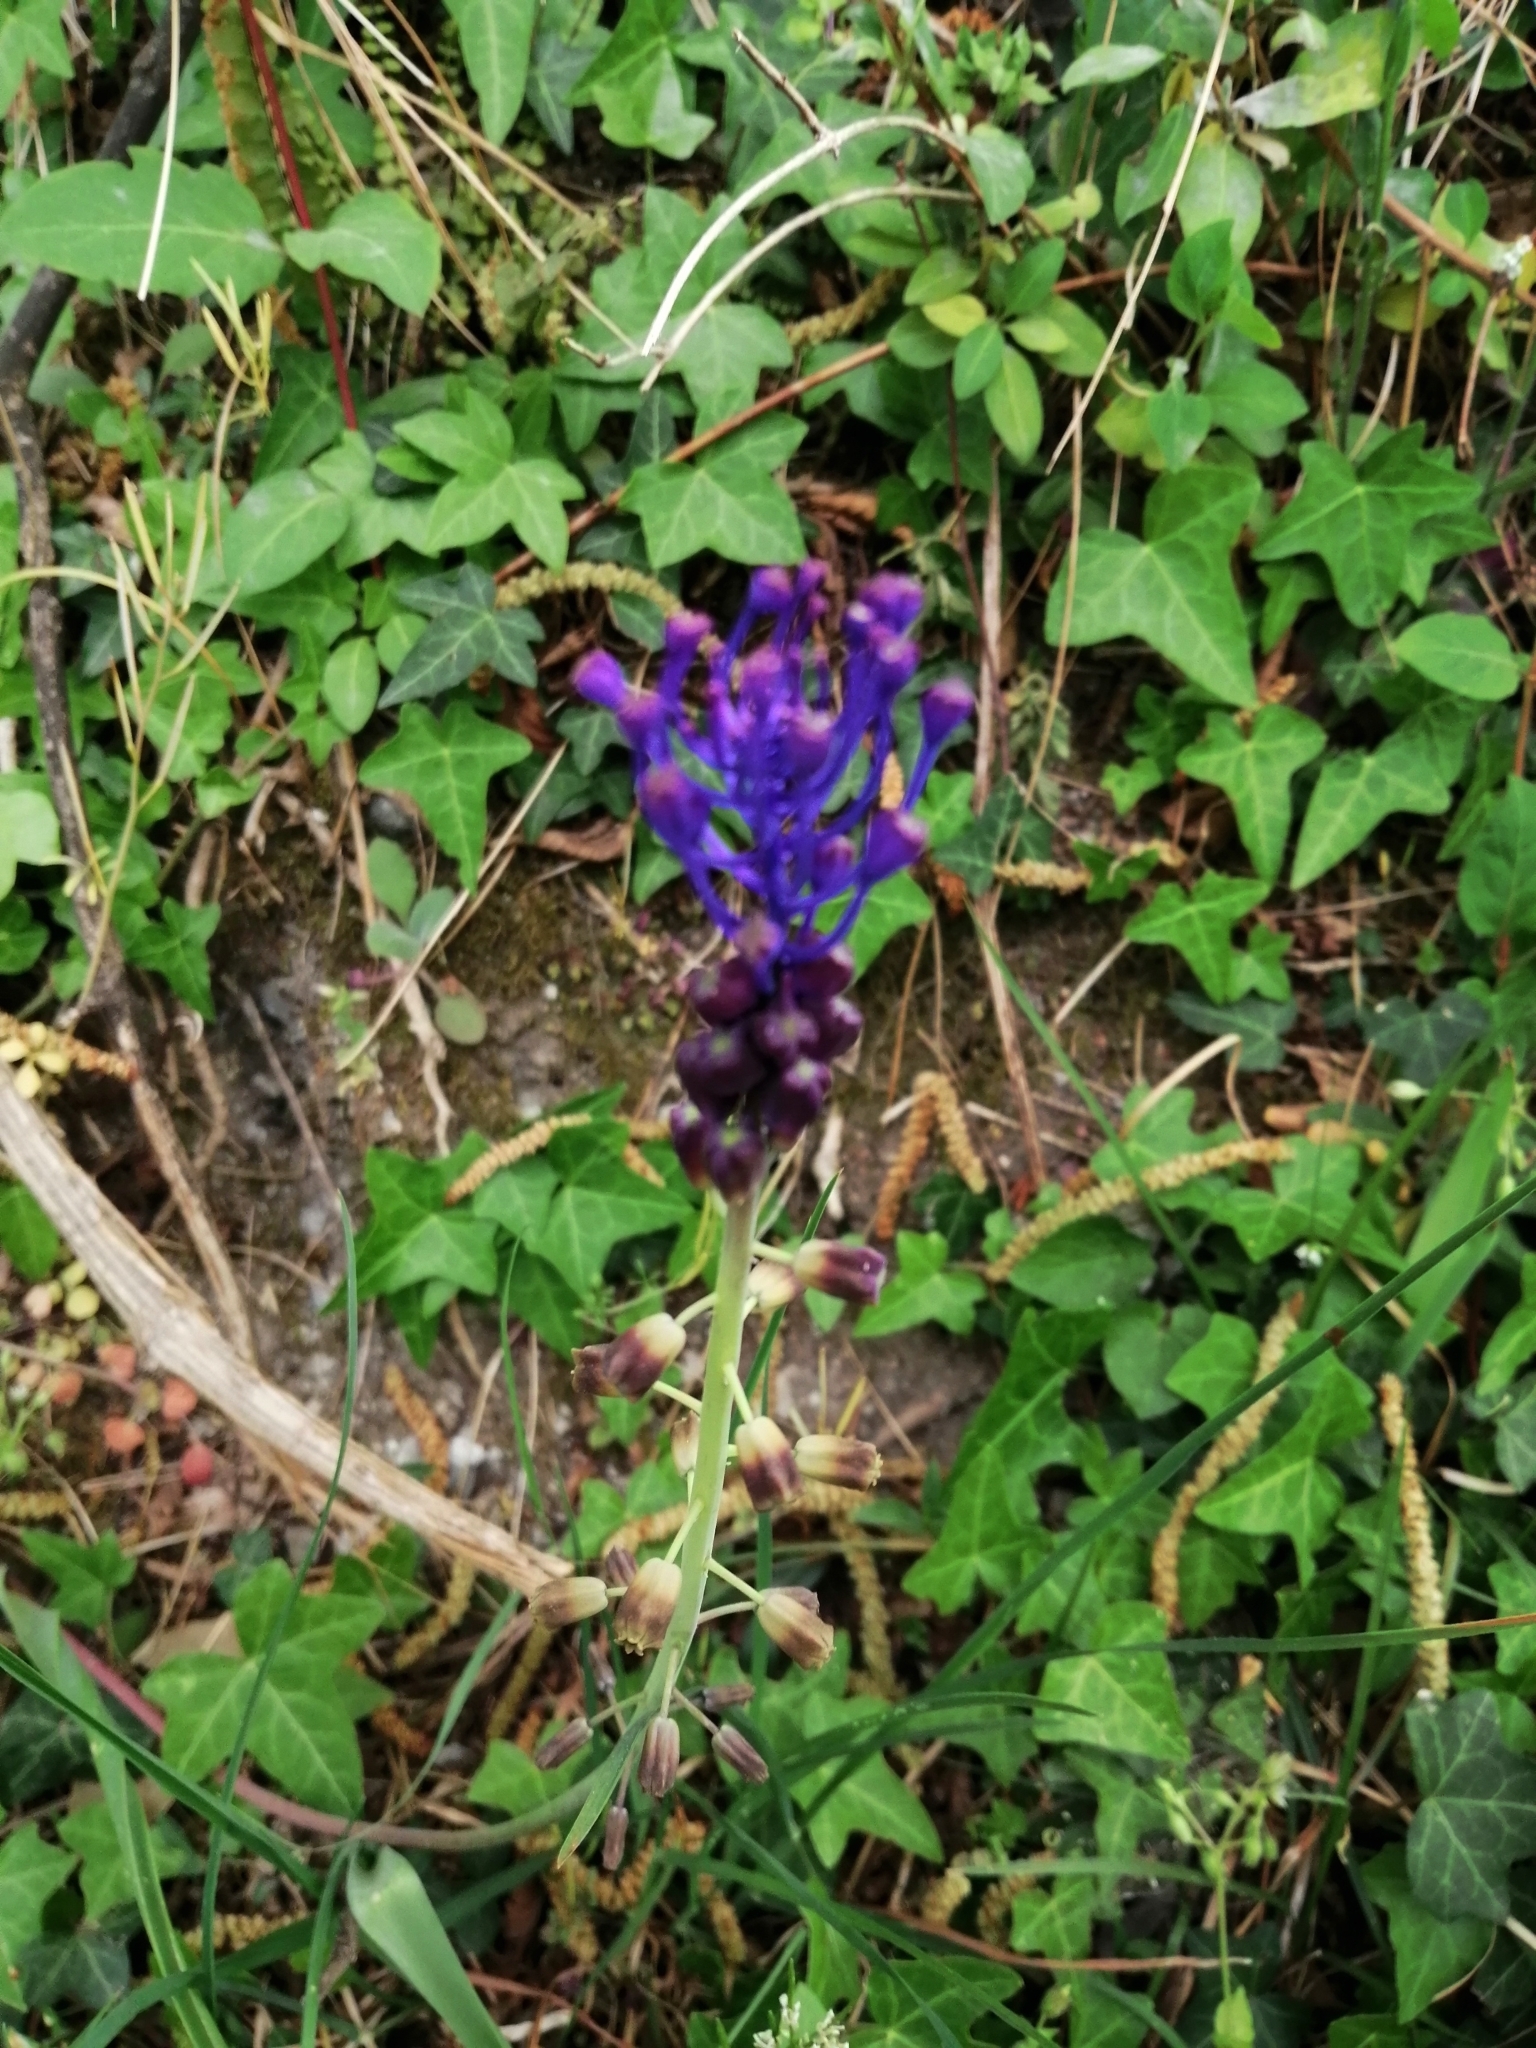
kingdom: Plantae
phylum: Tracheophyta
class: Liliopsida
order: Asparagales
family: Asparagaceae
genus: Muscari
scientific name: Muscari comosum
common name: Tassel hyacinth
